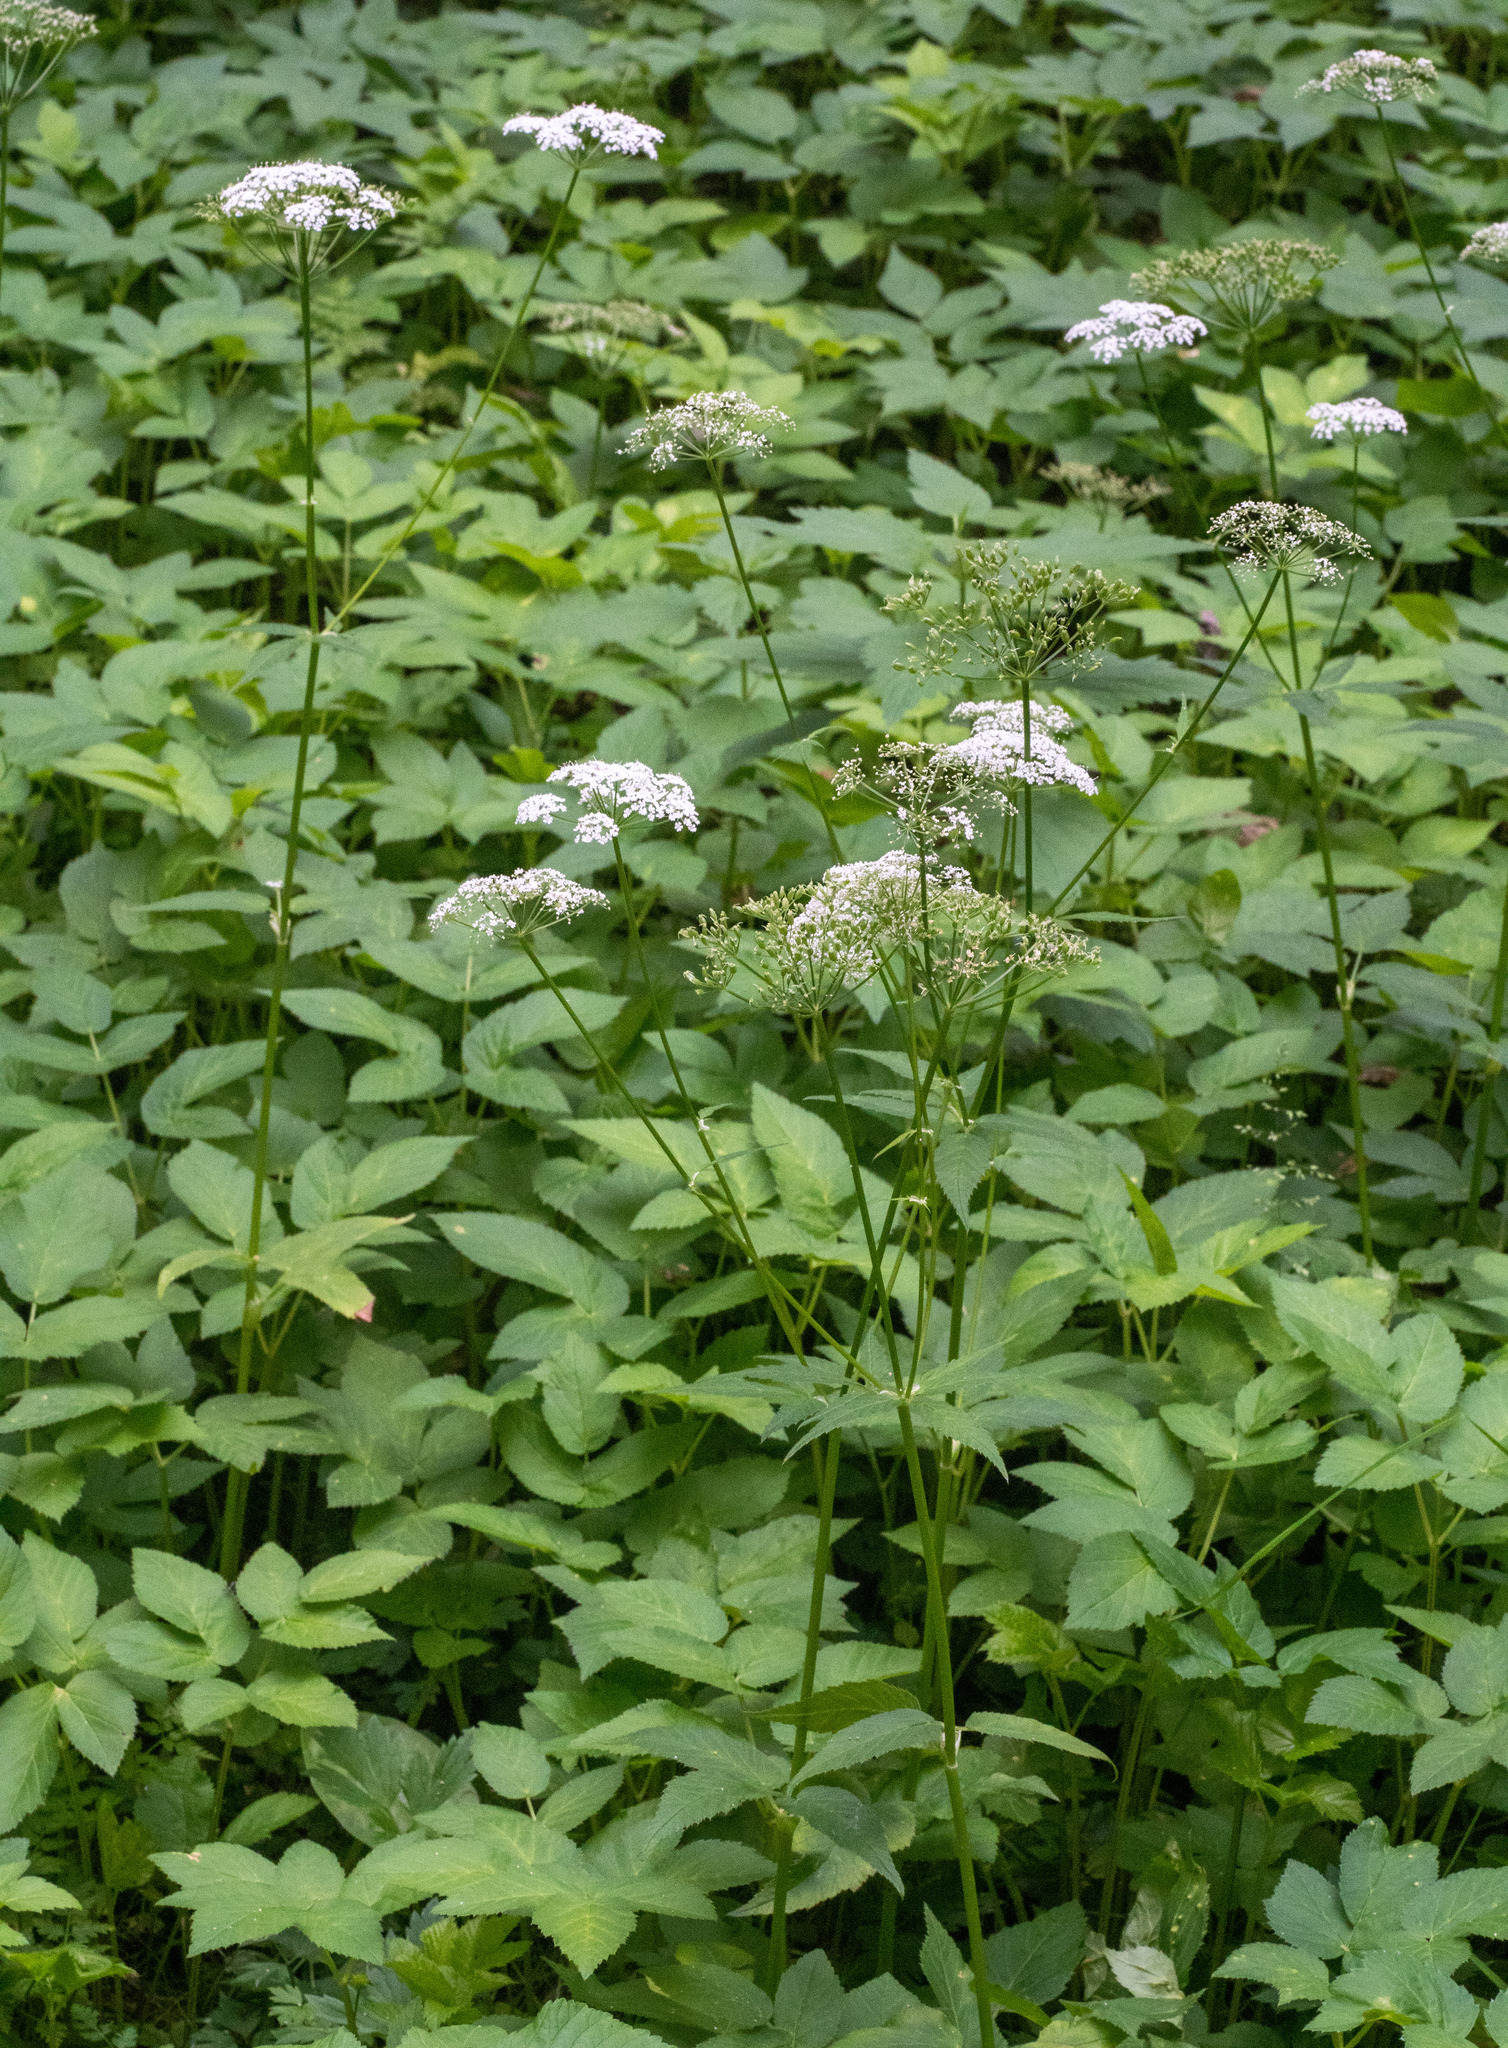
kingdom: Plantae
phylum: Tracheophyta
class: Magnoliopsida
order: Apiales
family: Apiaceae
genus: Aegopodium
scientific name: Aegopodium podagraria
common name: Ground-elder
